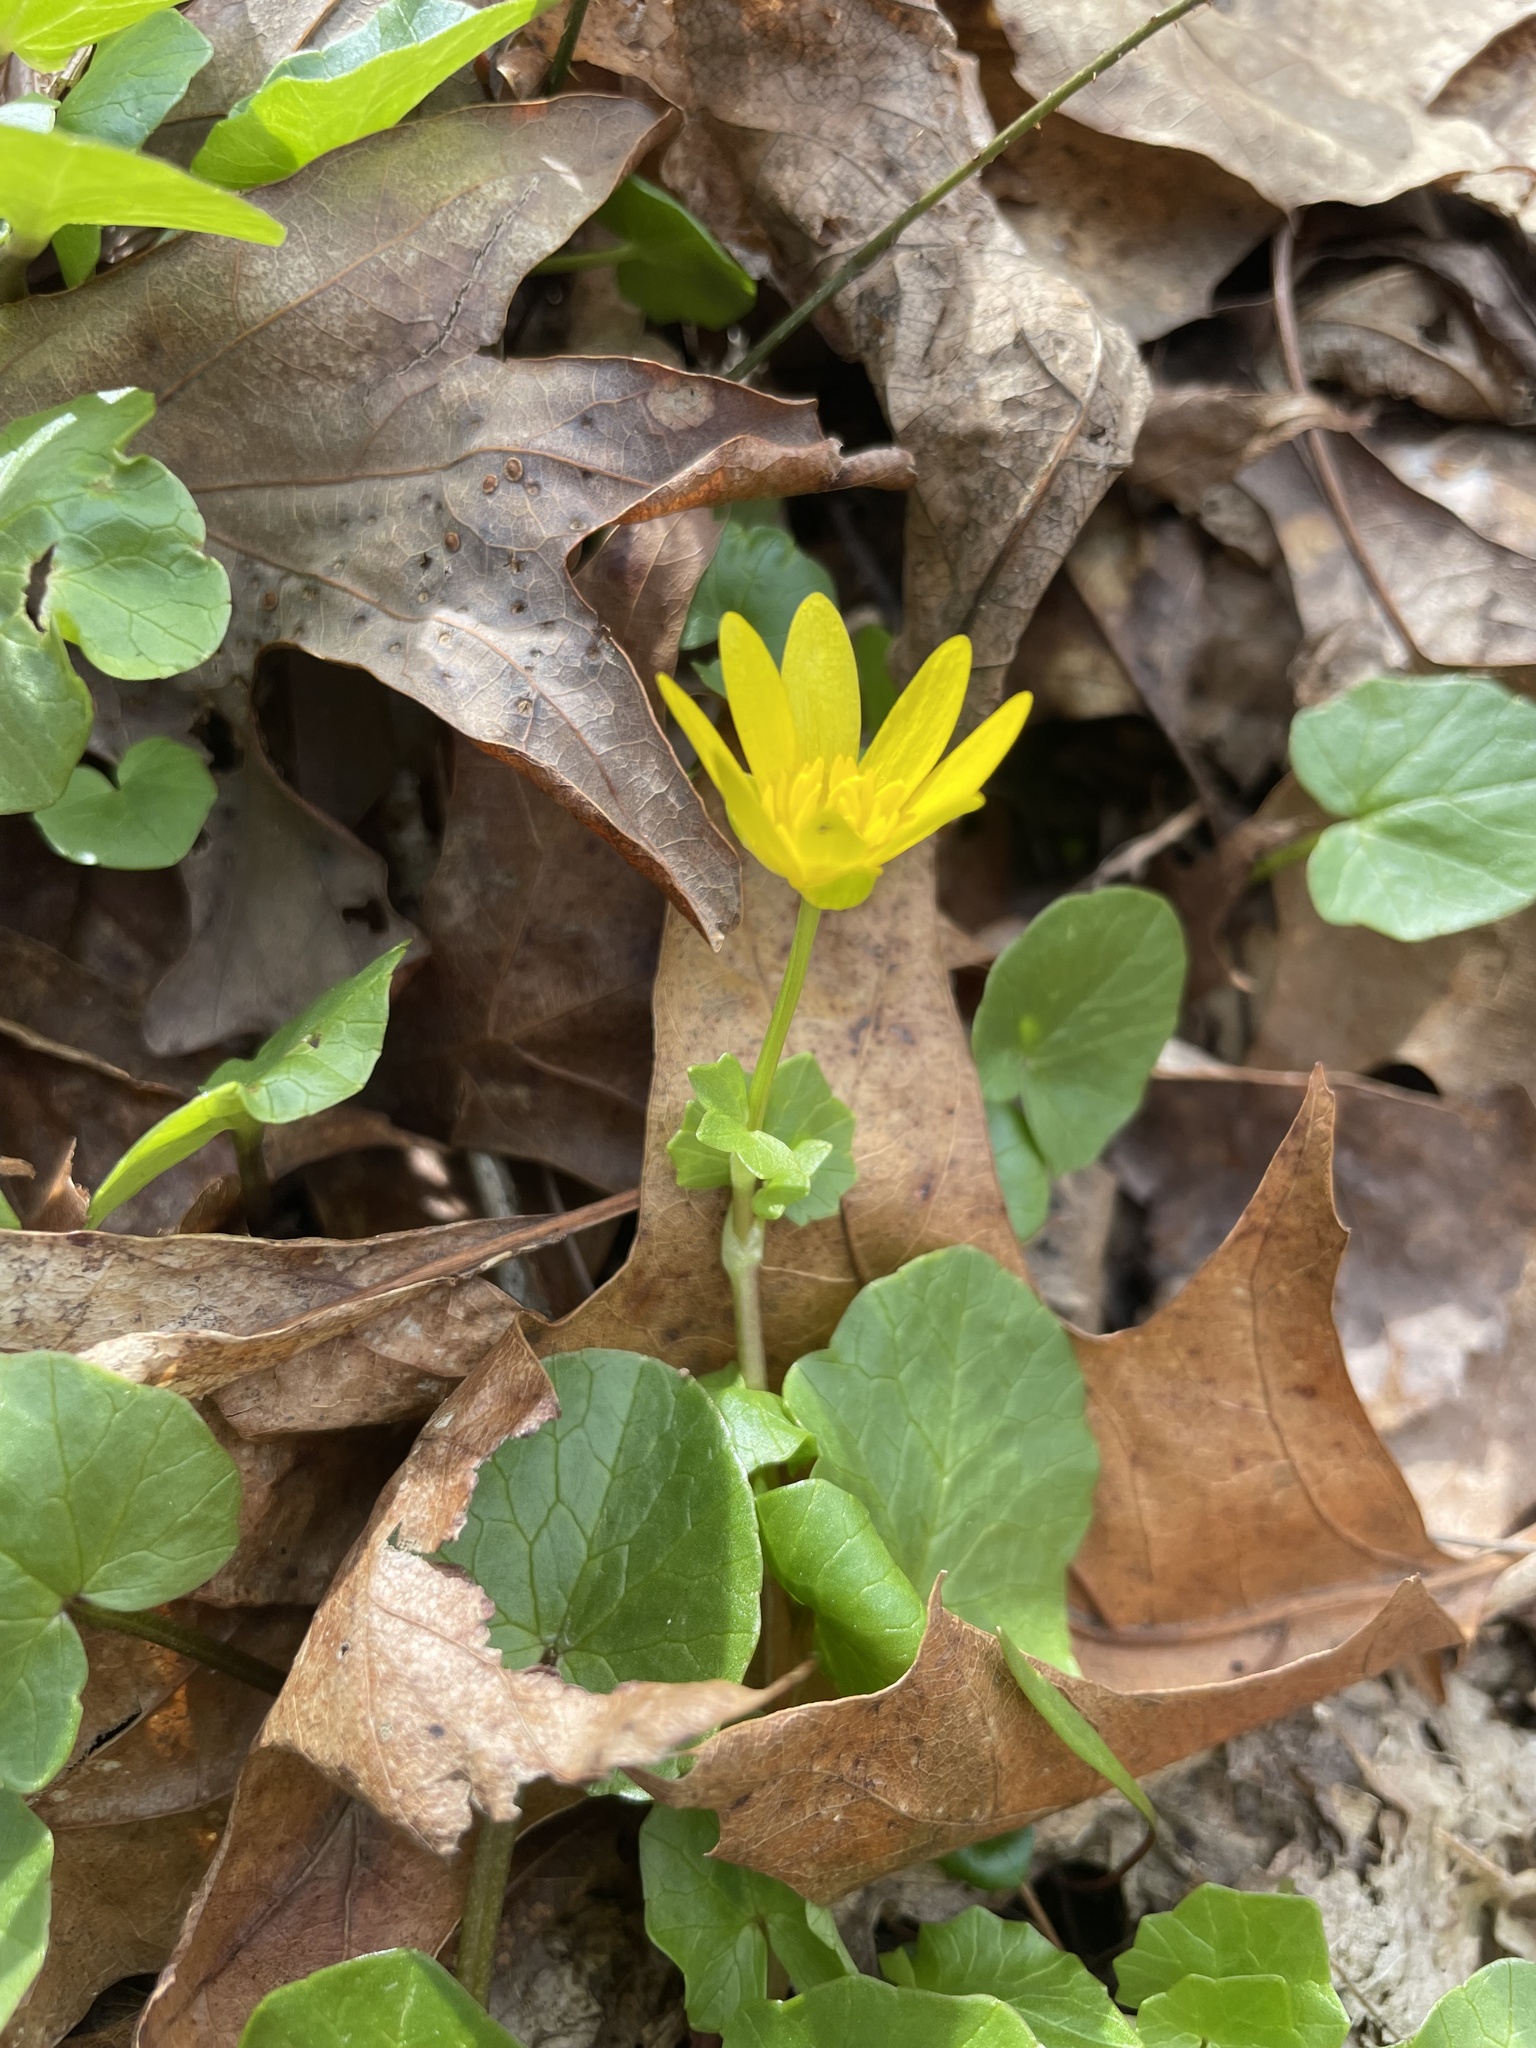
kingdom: Plantae
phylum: Tracheophyta
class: Magnoliopsida
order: Ranunculales
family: Ranunculaceae
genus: Ficaria
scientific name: Ficaria verna
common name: Lesser celandine
